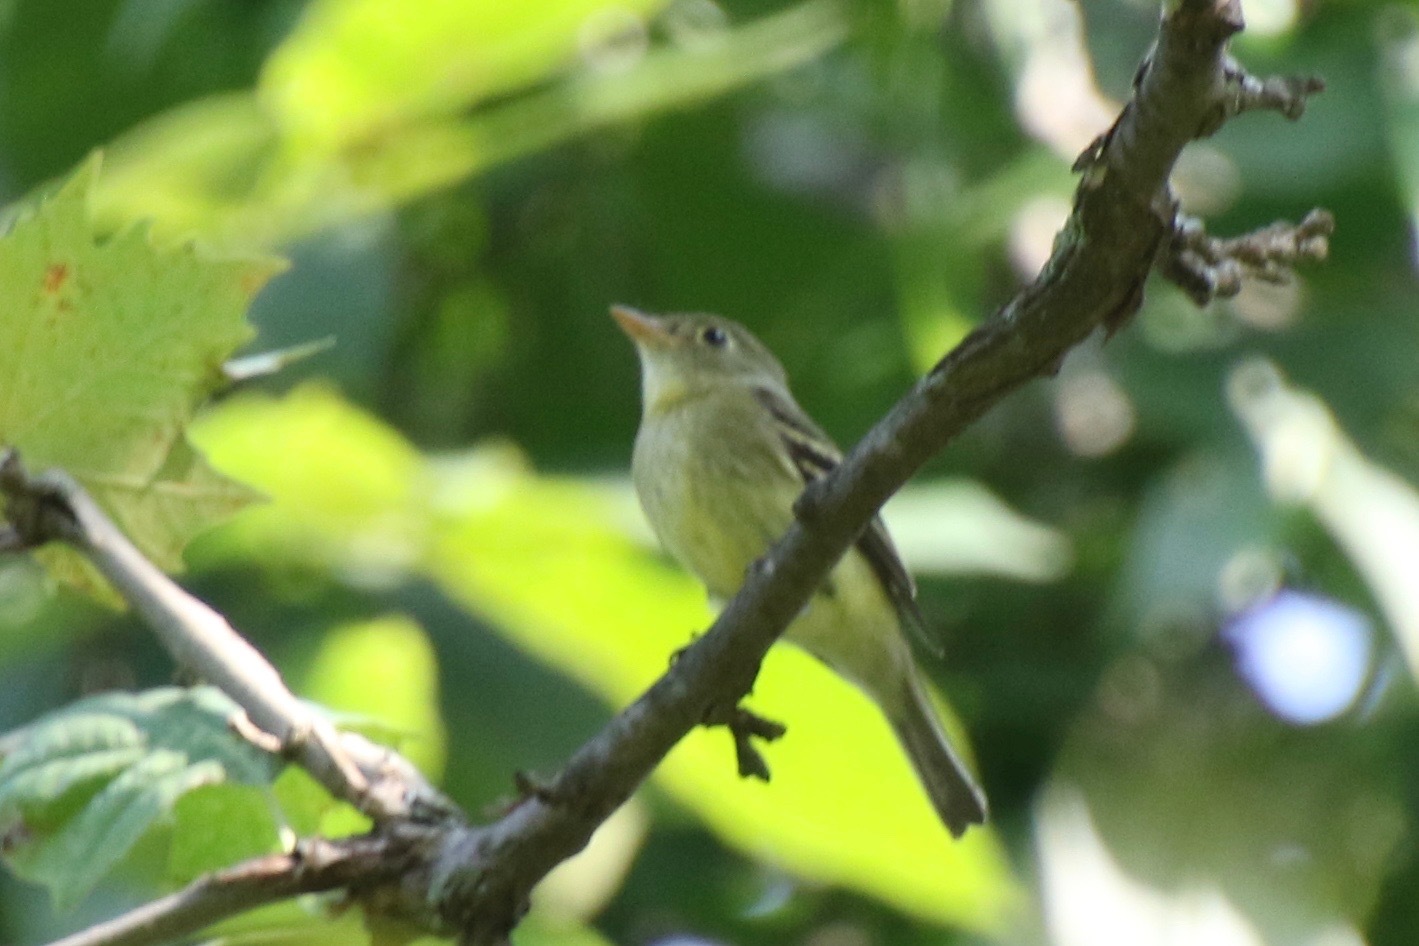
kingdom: Animalia
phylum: Chordata
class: Aves
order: Passeriformes
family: Tyrannidae
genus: Empidonax
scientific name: Empidonax flaviventris
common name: Yellow-bellied flycatcher
